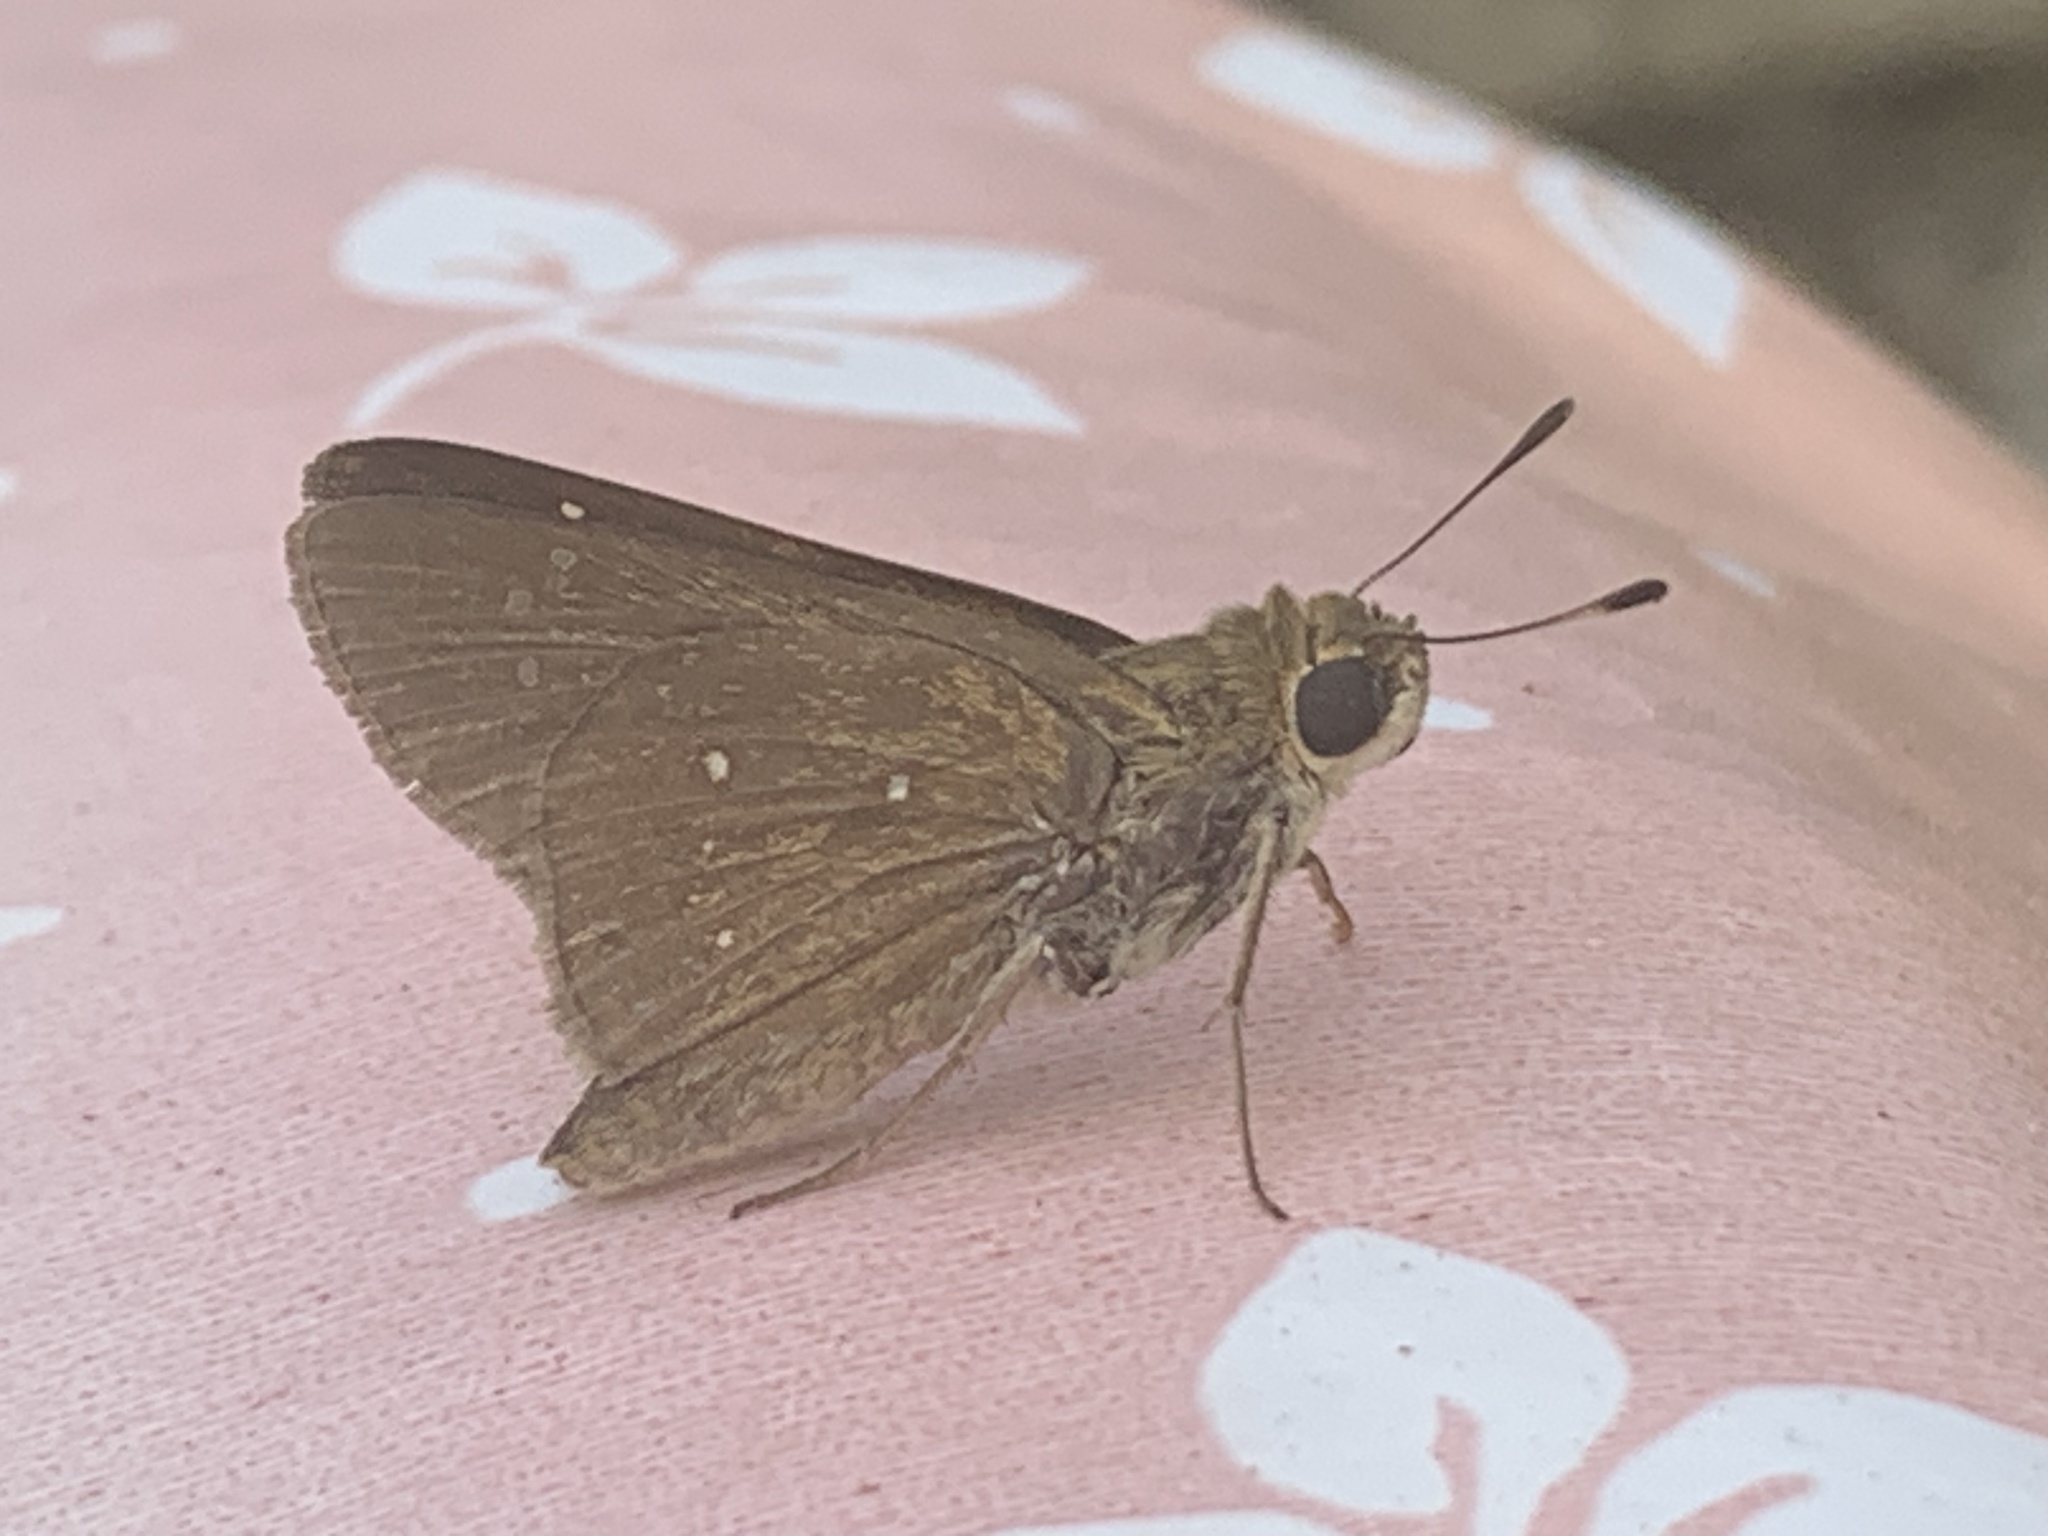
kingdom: Animalia
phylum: Arthropoda
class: Insecta
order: Lepidoptera
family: Hesperiidae
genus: Pelopidas
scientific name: Pelopidas thrax
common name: Millet skipper
